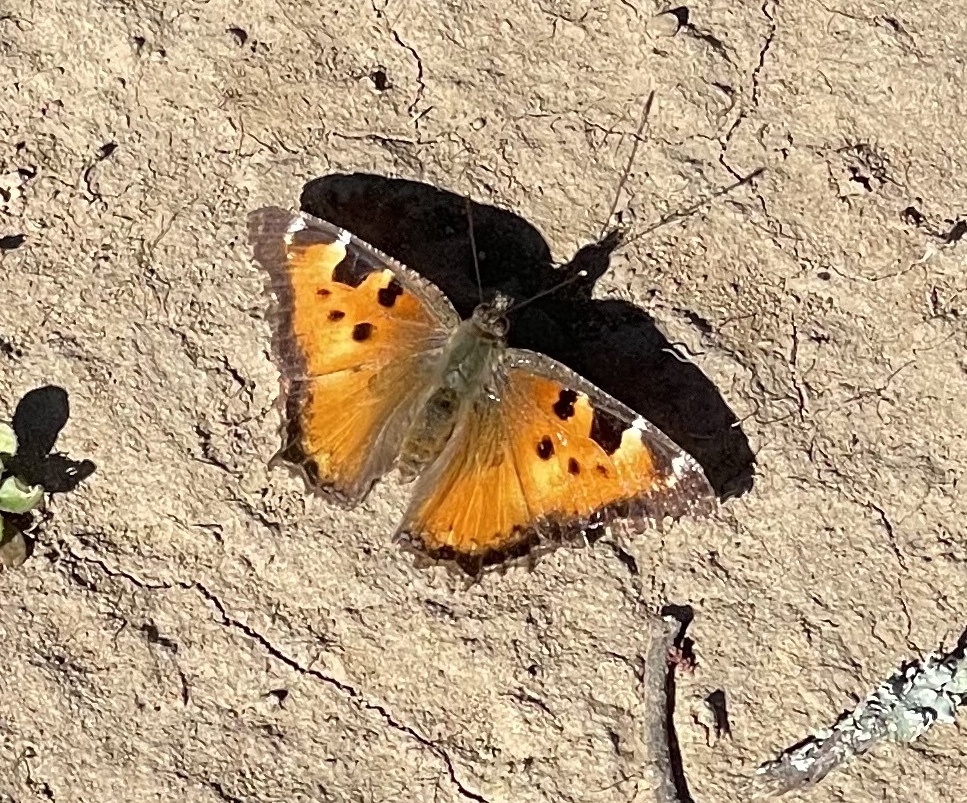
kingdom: Animalia
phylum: Arthropoda
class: Insecta
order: Lepidoptera
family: Nymphalidae
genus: Nymphalis
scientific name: Nymphalis californica
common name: California tortoiseshell
